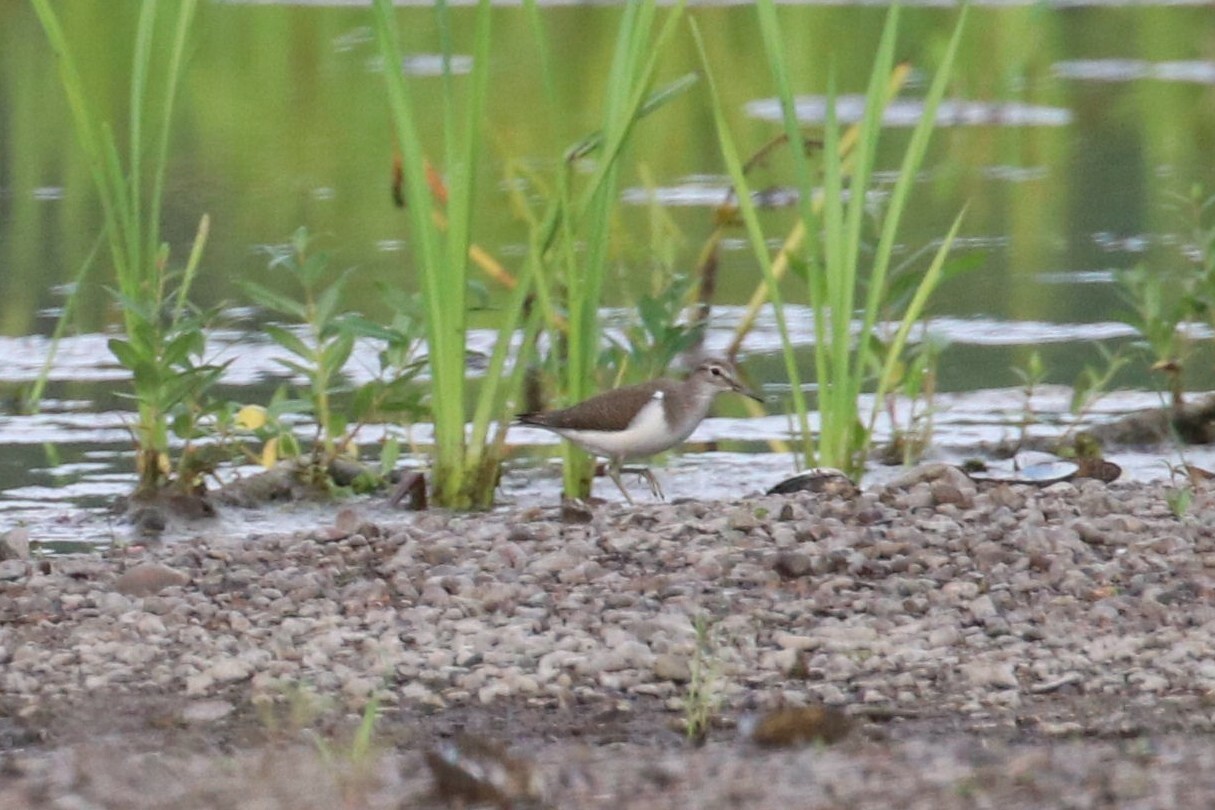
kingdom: Animalia
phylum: Chordata
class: Aves
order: Charadriiformes
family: Scolopacidae
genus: Actitis
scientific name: Actitis hypoleucos
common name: Common sandpiper
